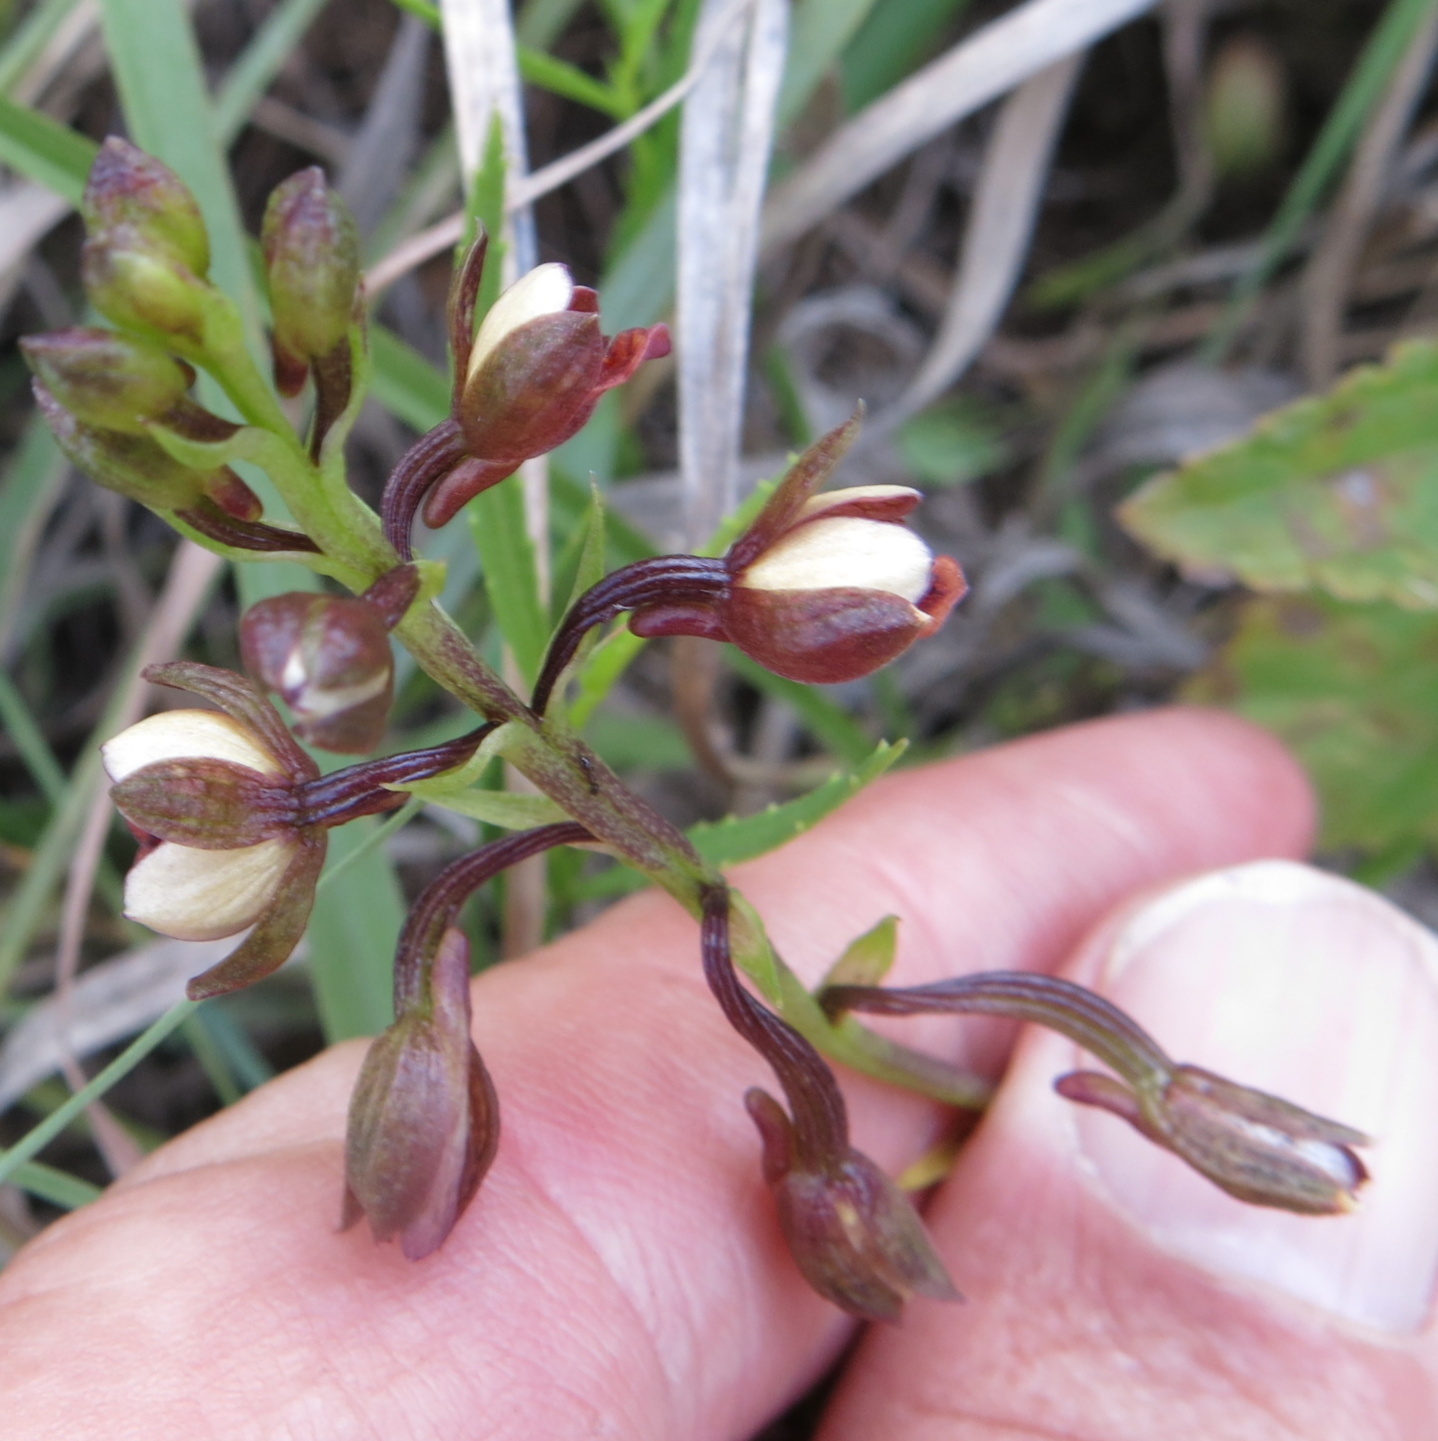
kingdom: Plantae
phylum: Tracheophyta
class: Liliopsida
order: Asparagales
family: Orchidaceae
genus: Eulophia
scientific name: Eulophia tenella
